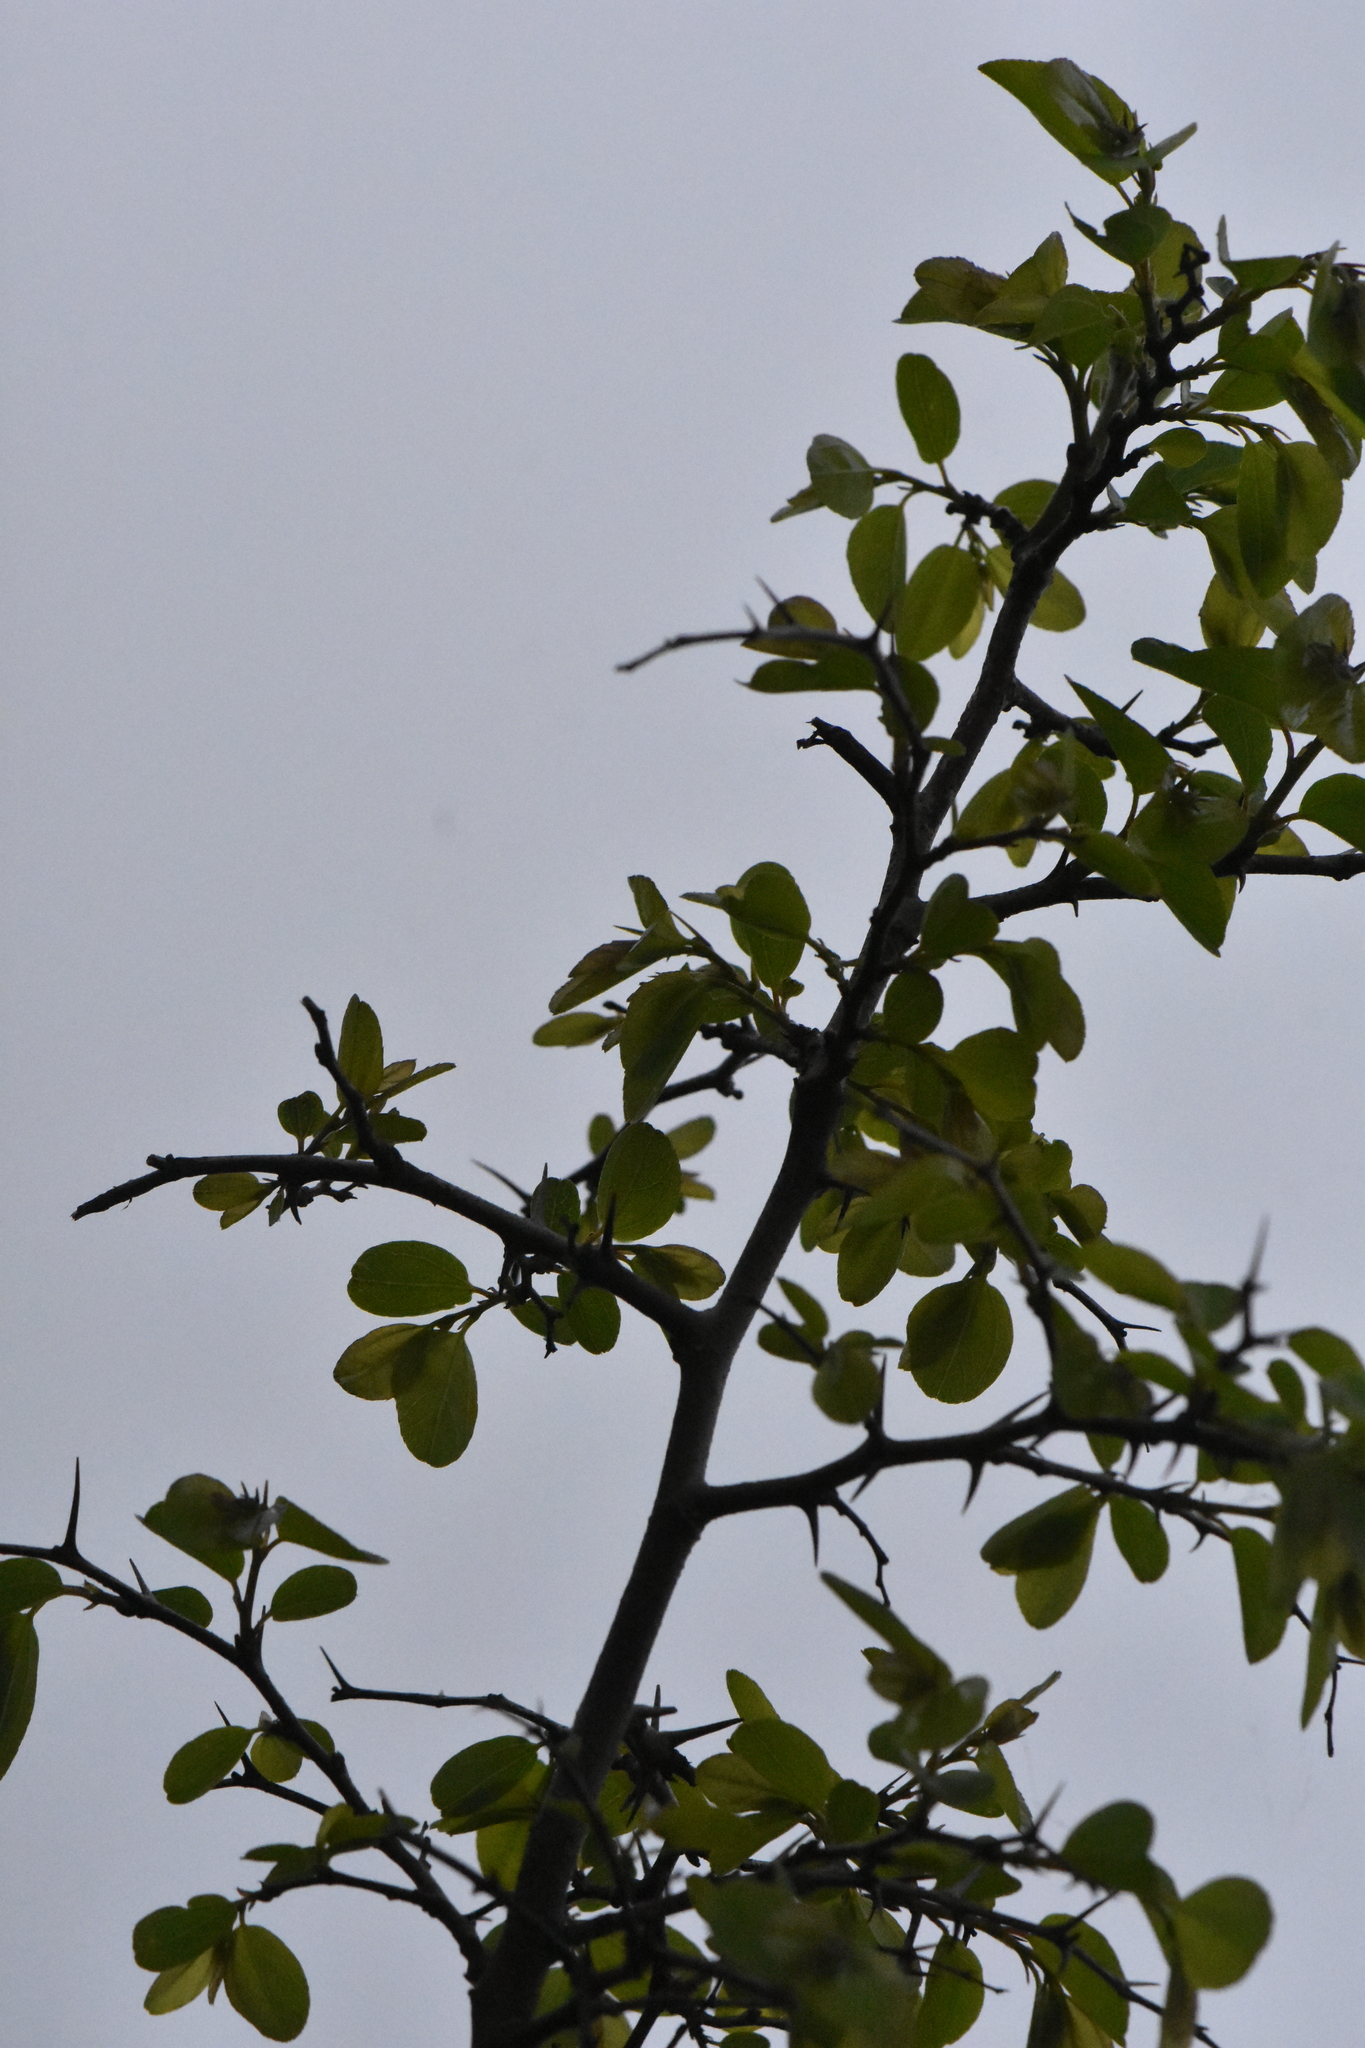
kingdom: Plantae
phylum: Tracheophyta
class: Magnoliopsida
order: Rosales
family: Rhamnaceae
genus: Paliurus
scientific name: Paliurus spina-christi
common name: Jeruselem thorn
